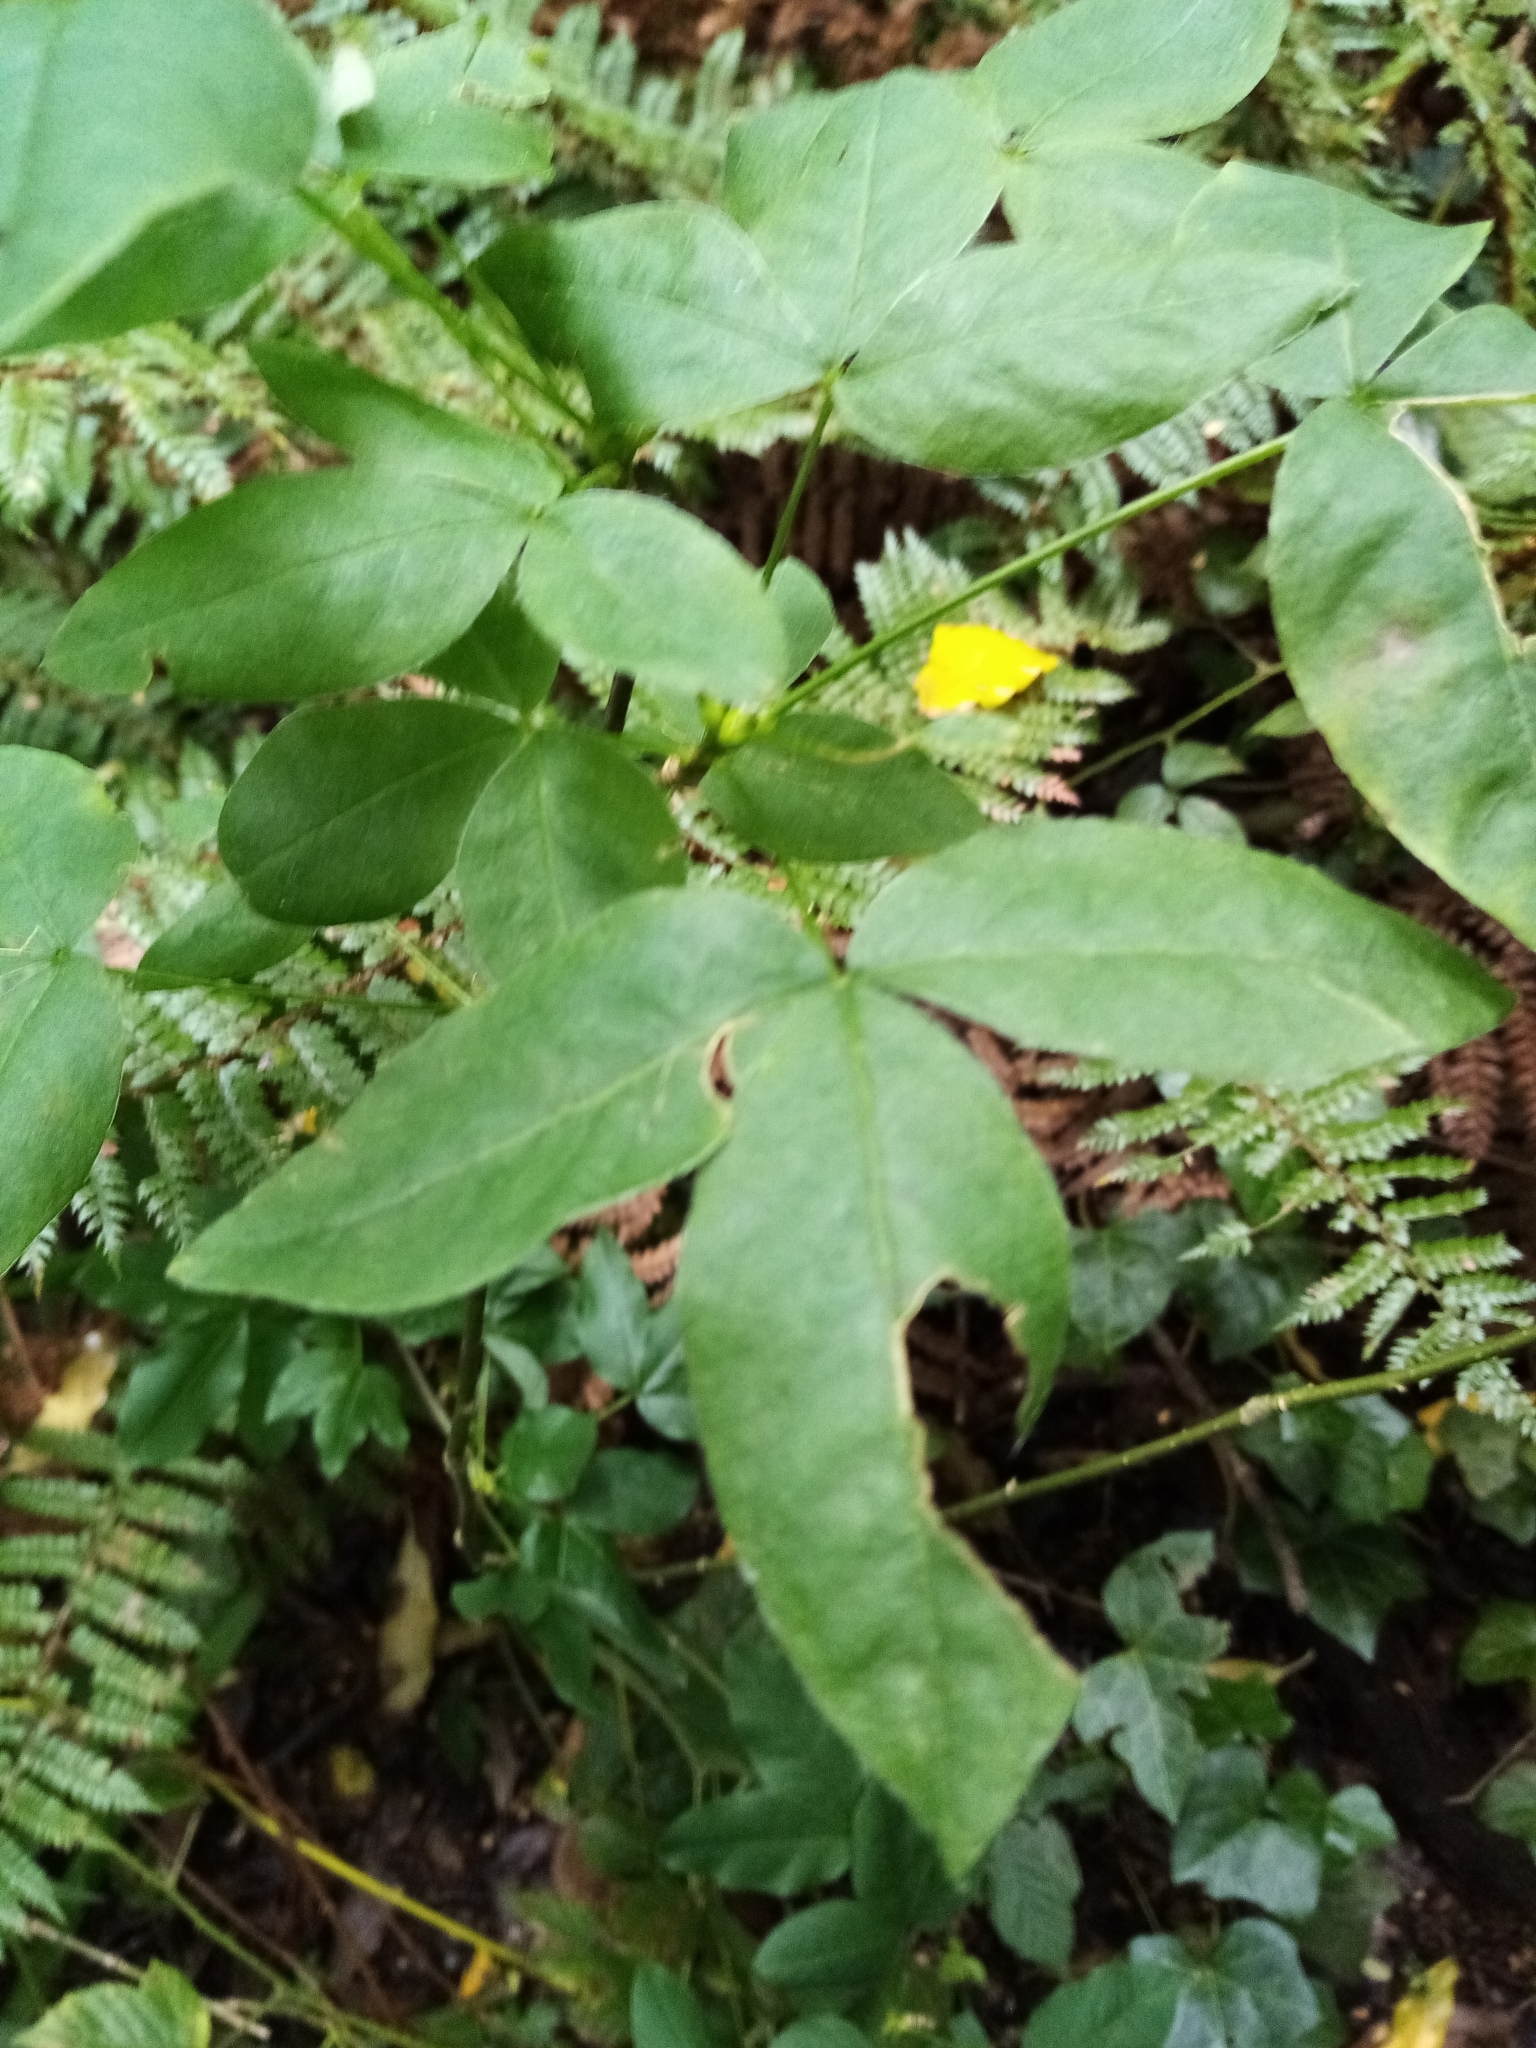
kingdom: Plantae
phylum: Tracheophyta
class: Magnoliopsida
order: Fabales
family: Fabaceae
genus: Laburnum
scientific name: Laburnum anagyroides
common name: Laburnum
